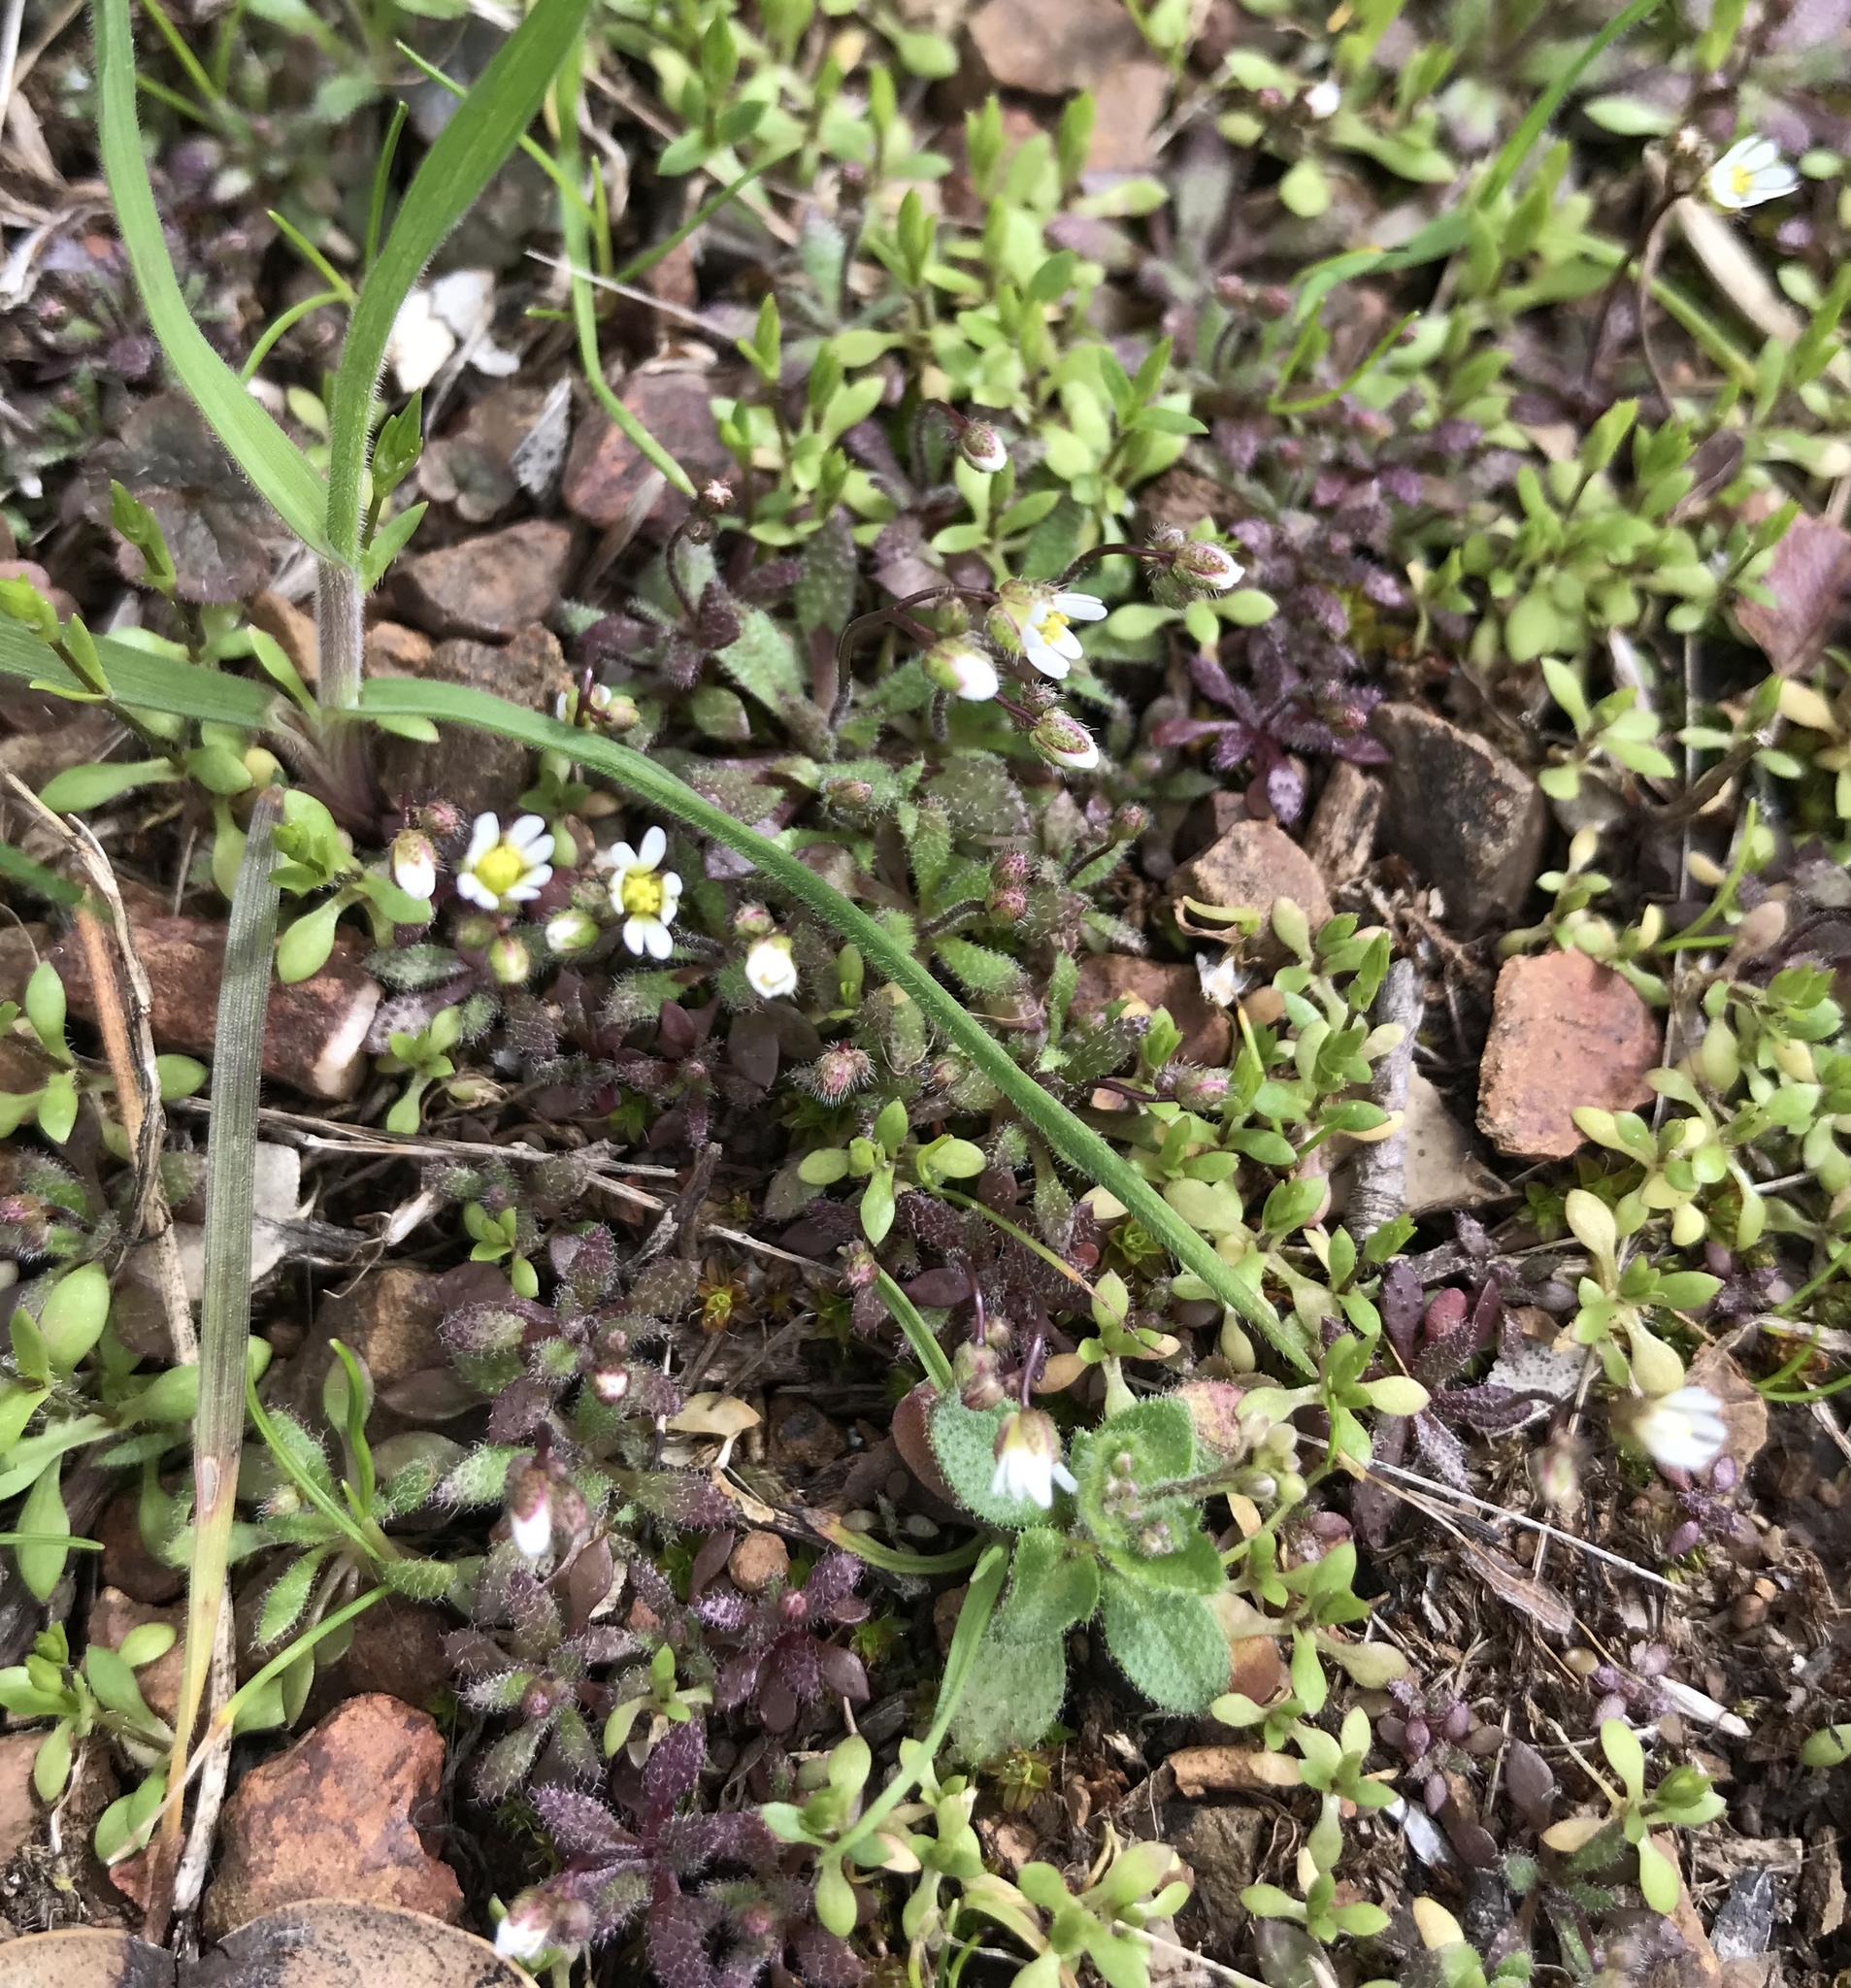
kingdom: Plantae
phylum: Tracheophyta
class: Magnoliopsida
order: Brassicales
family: Brassicaceae
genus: Draba
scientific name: Draba verna
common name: Spring draba
